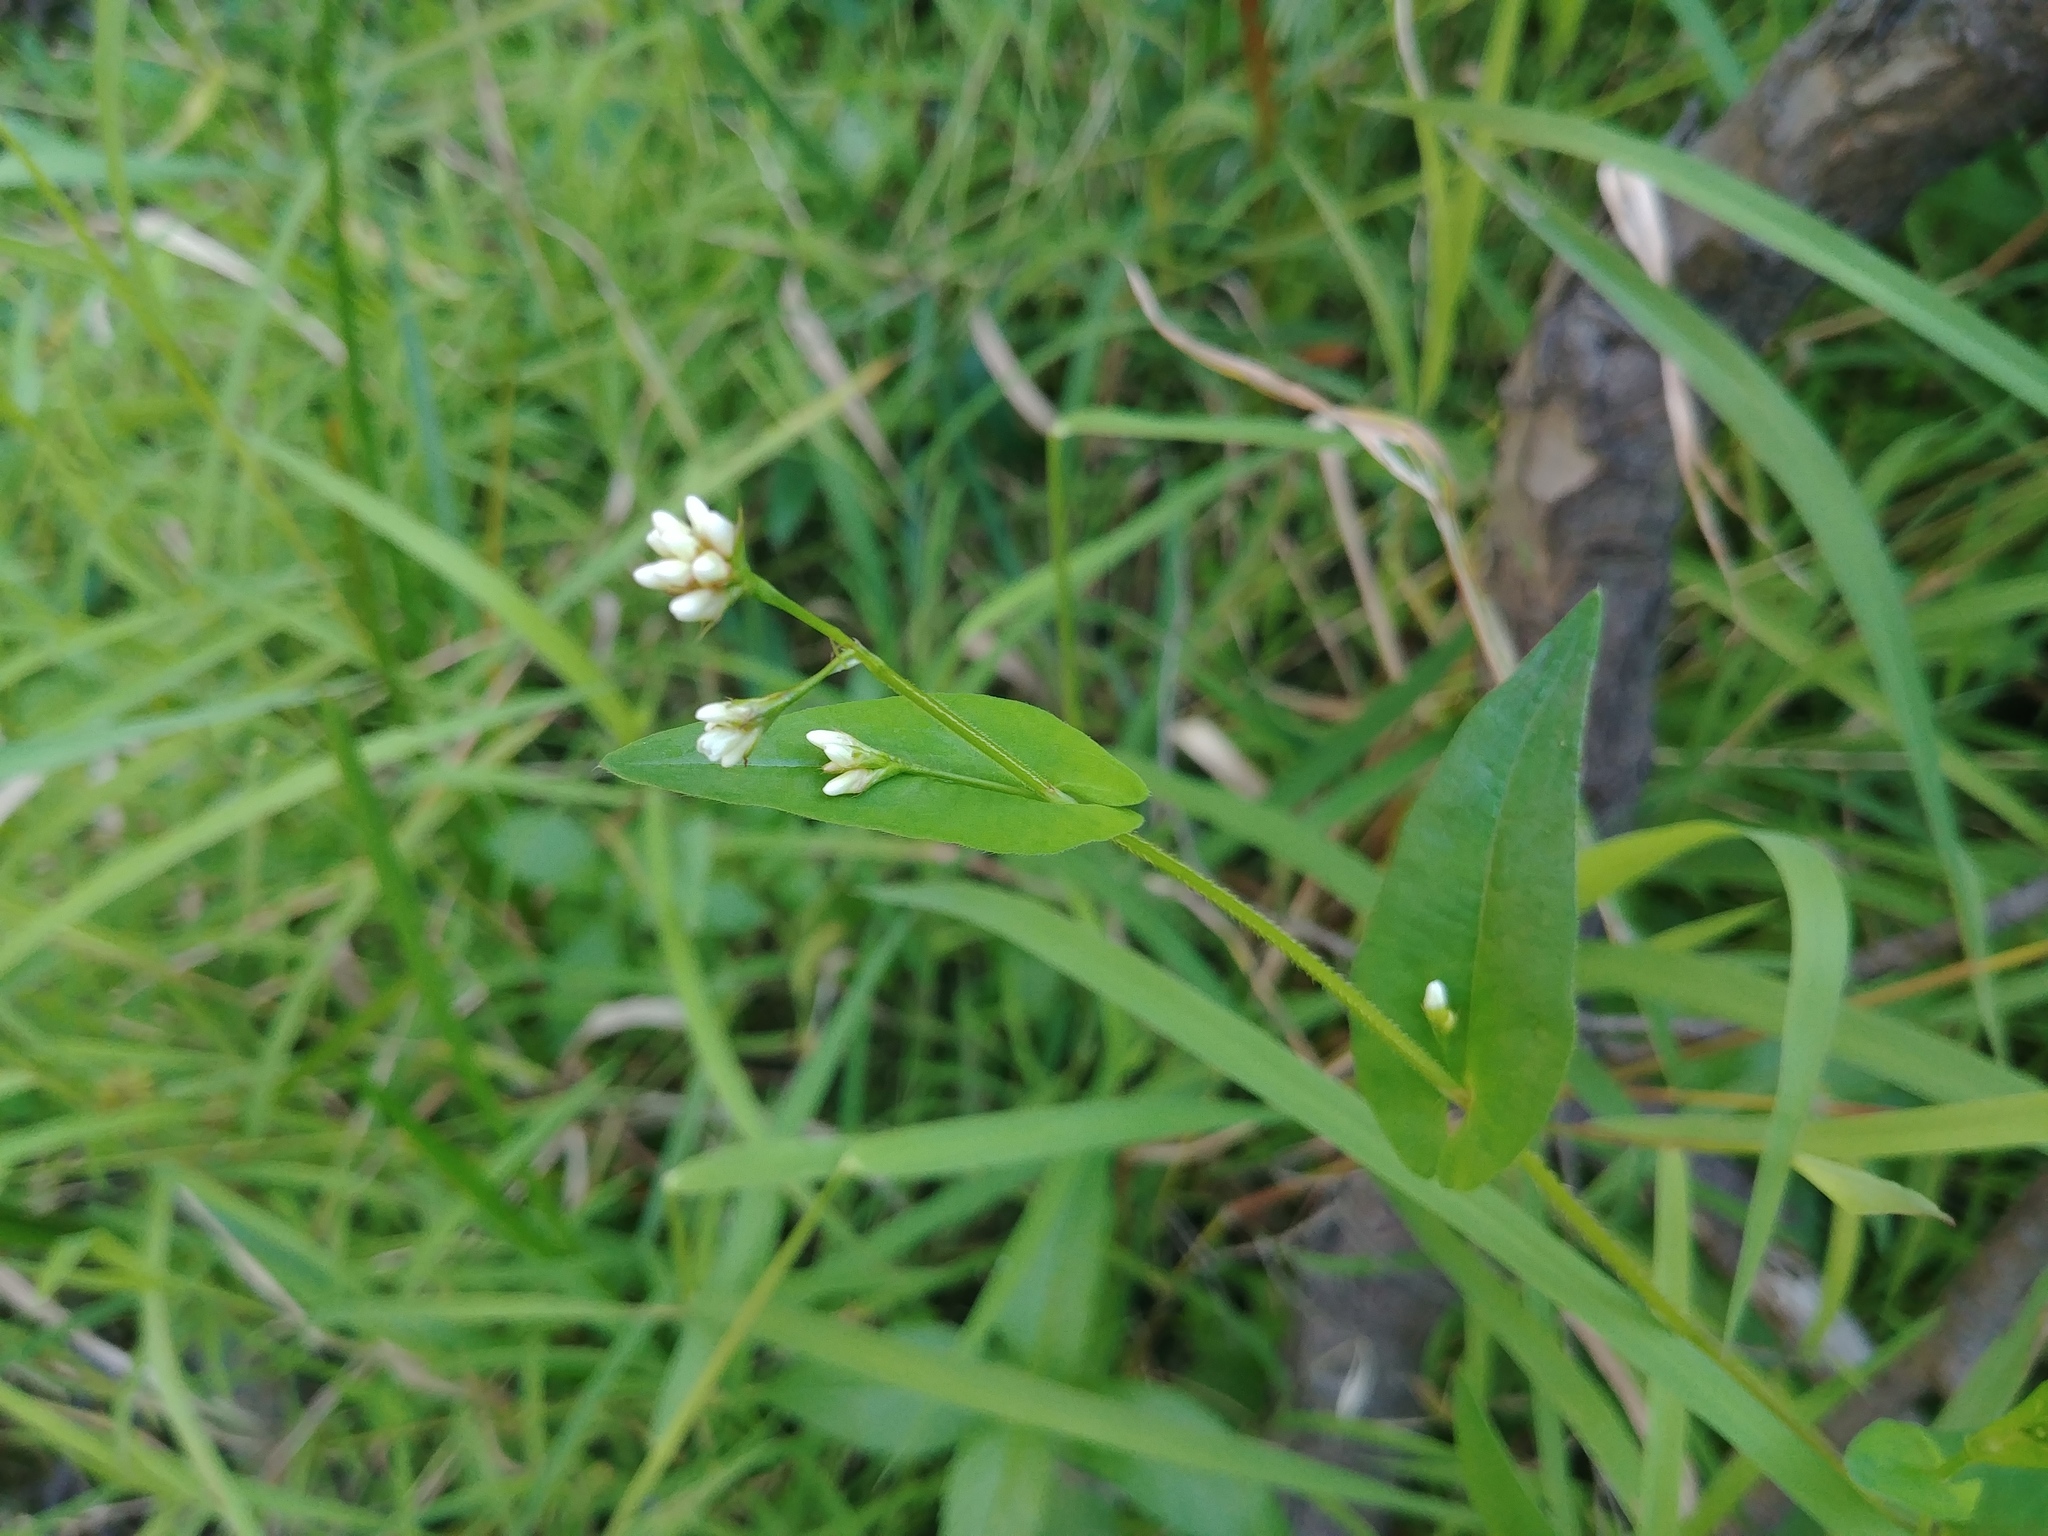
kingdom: Plantae
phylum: Tracheophyta
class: Magnoliopsida
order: Caryophyllales
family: Polygonaceae
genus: Persicaria
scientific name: Persicaria sagittata
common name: American tearthumb
